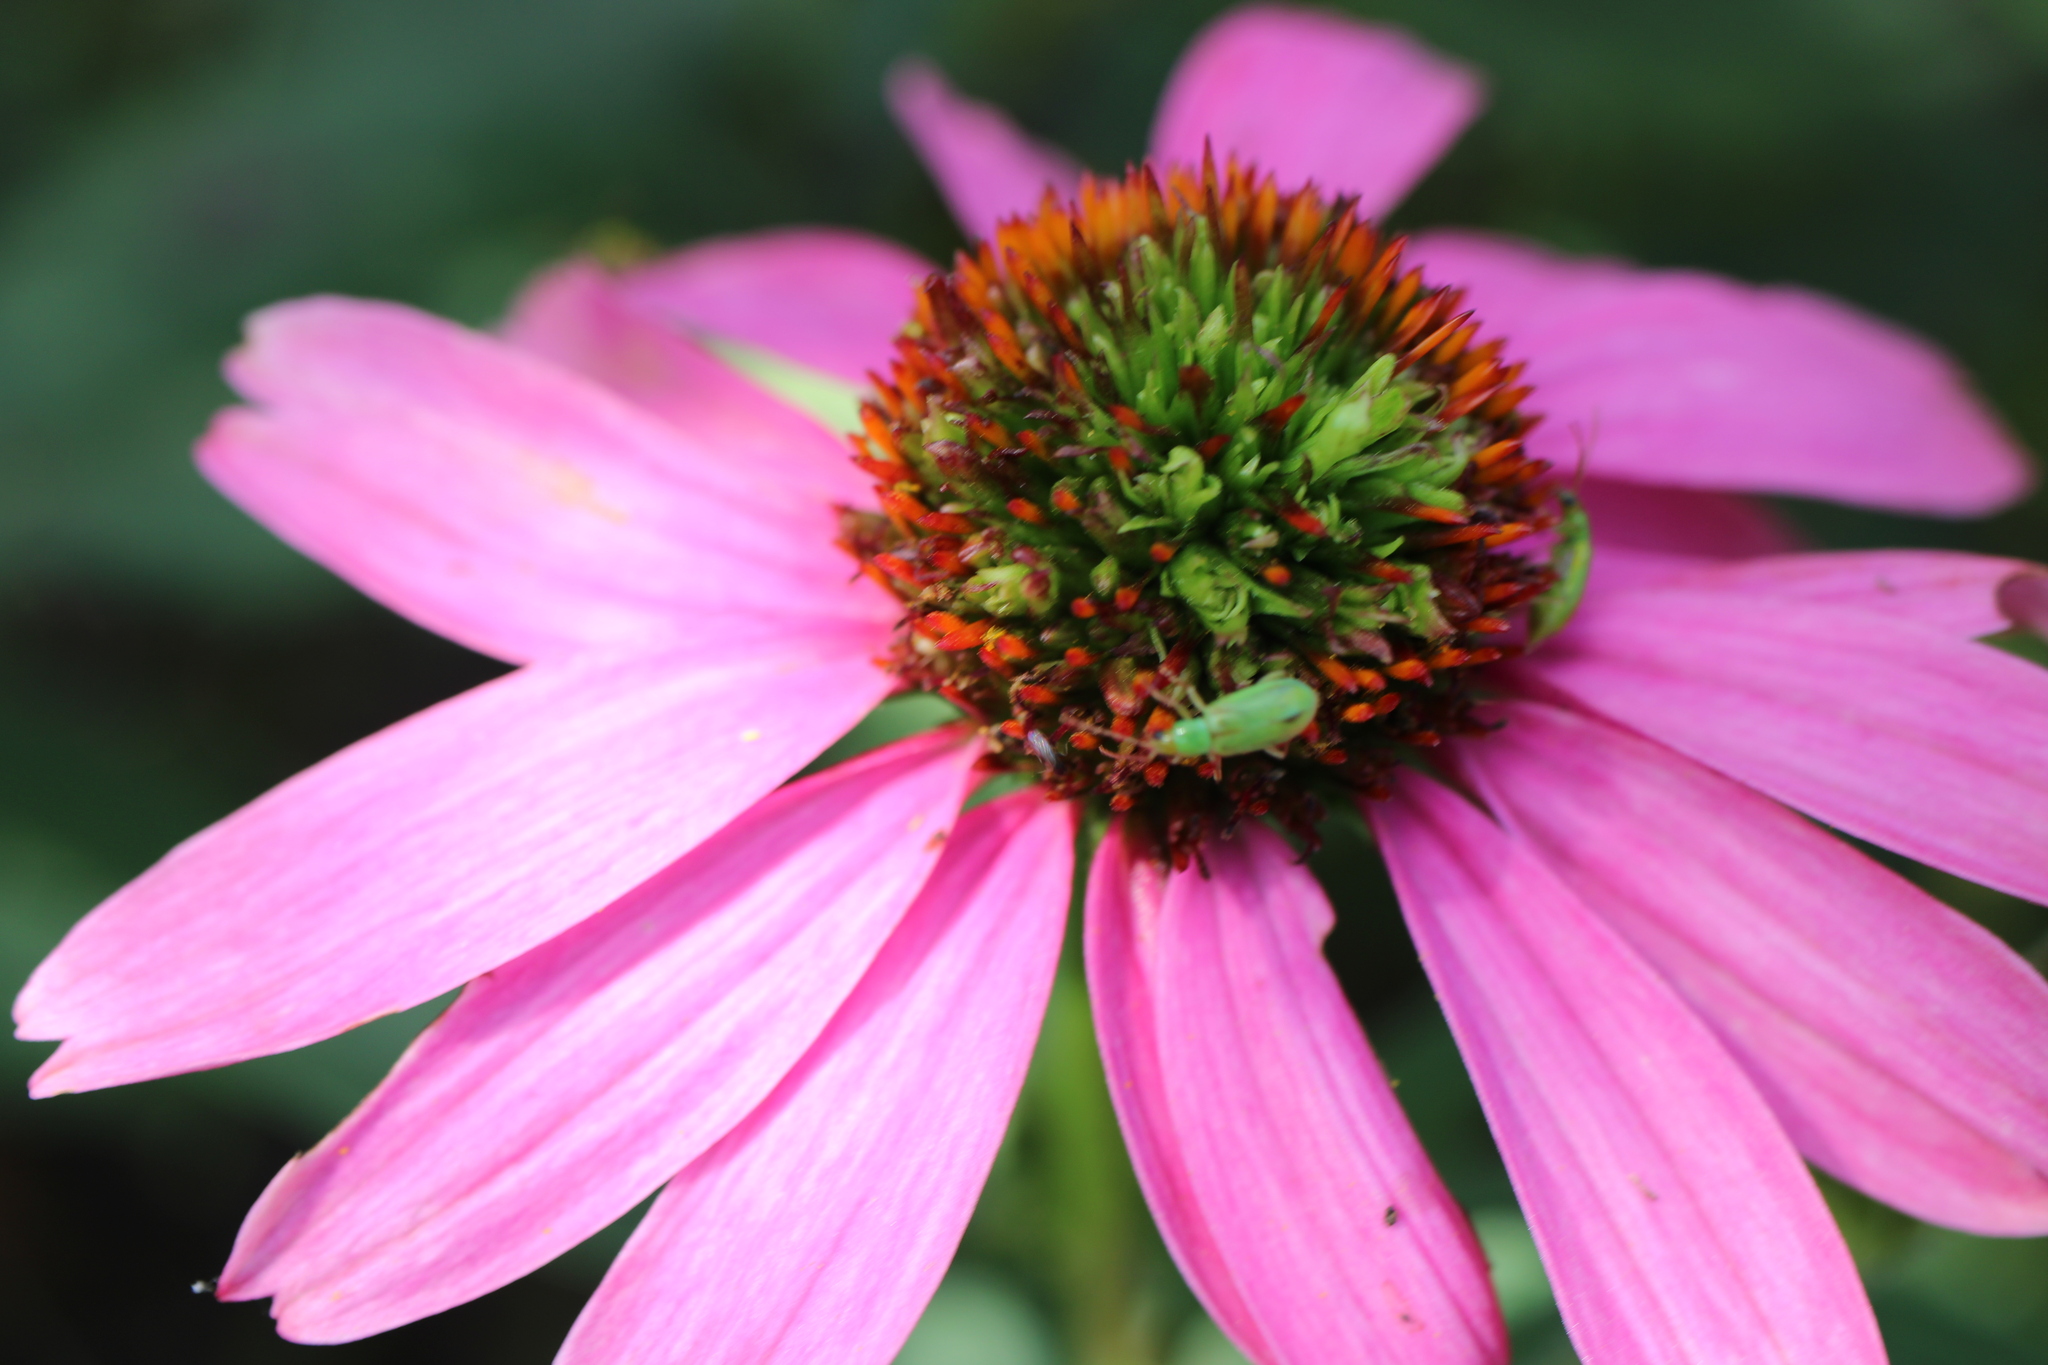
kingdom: Animalia
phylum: Arthropoda
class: Insecta
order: Coleoptera
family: Chrysomelidae
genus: Diabrotica
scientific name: Diabrotica barberi
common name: Northern corn rootworm
